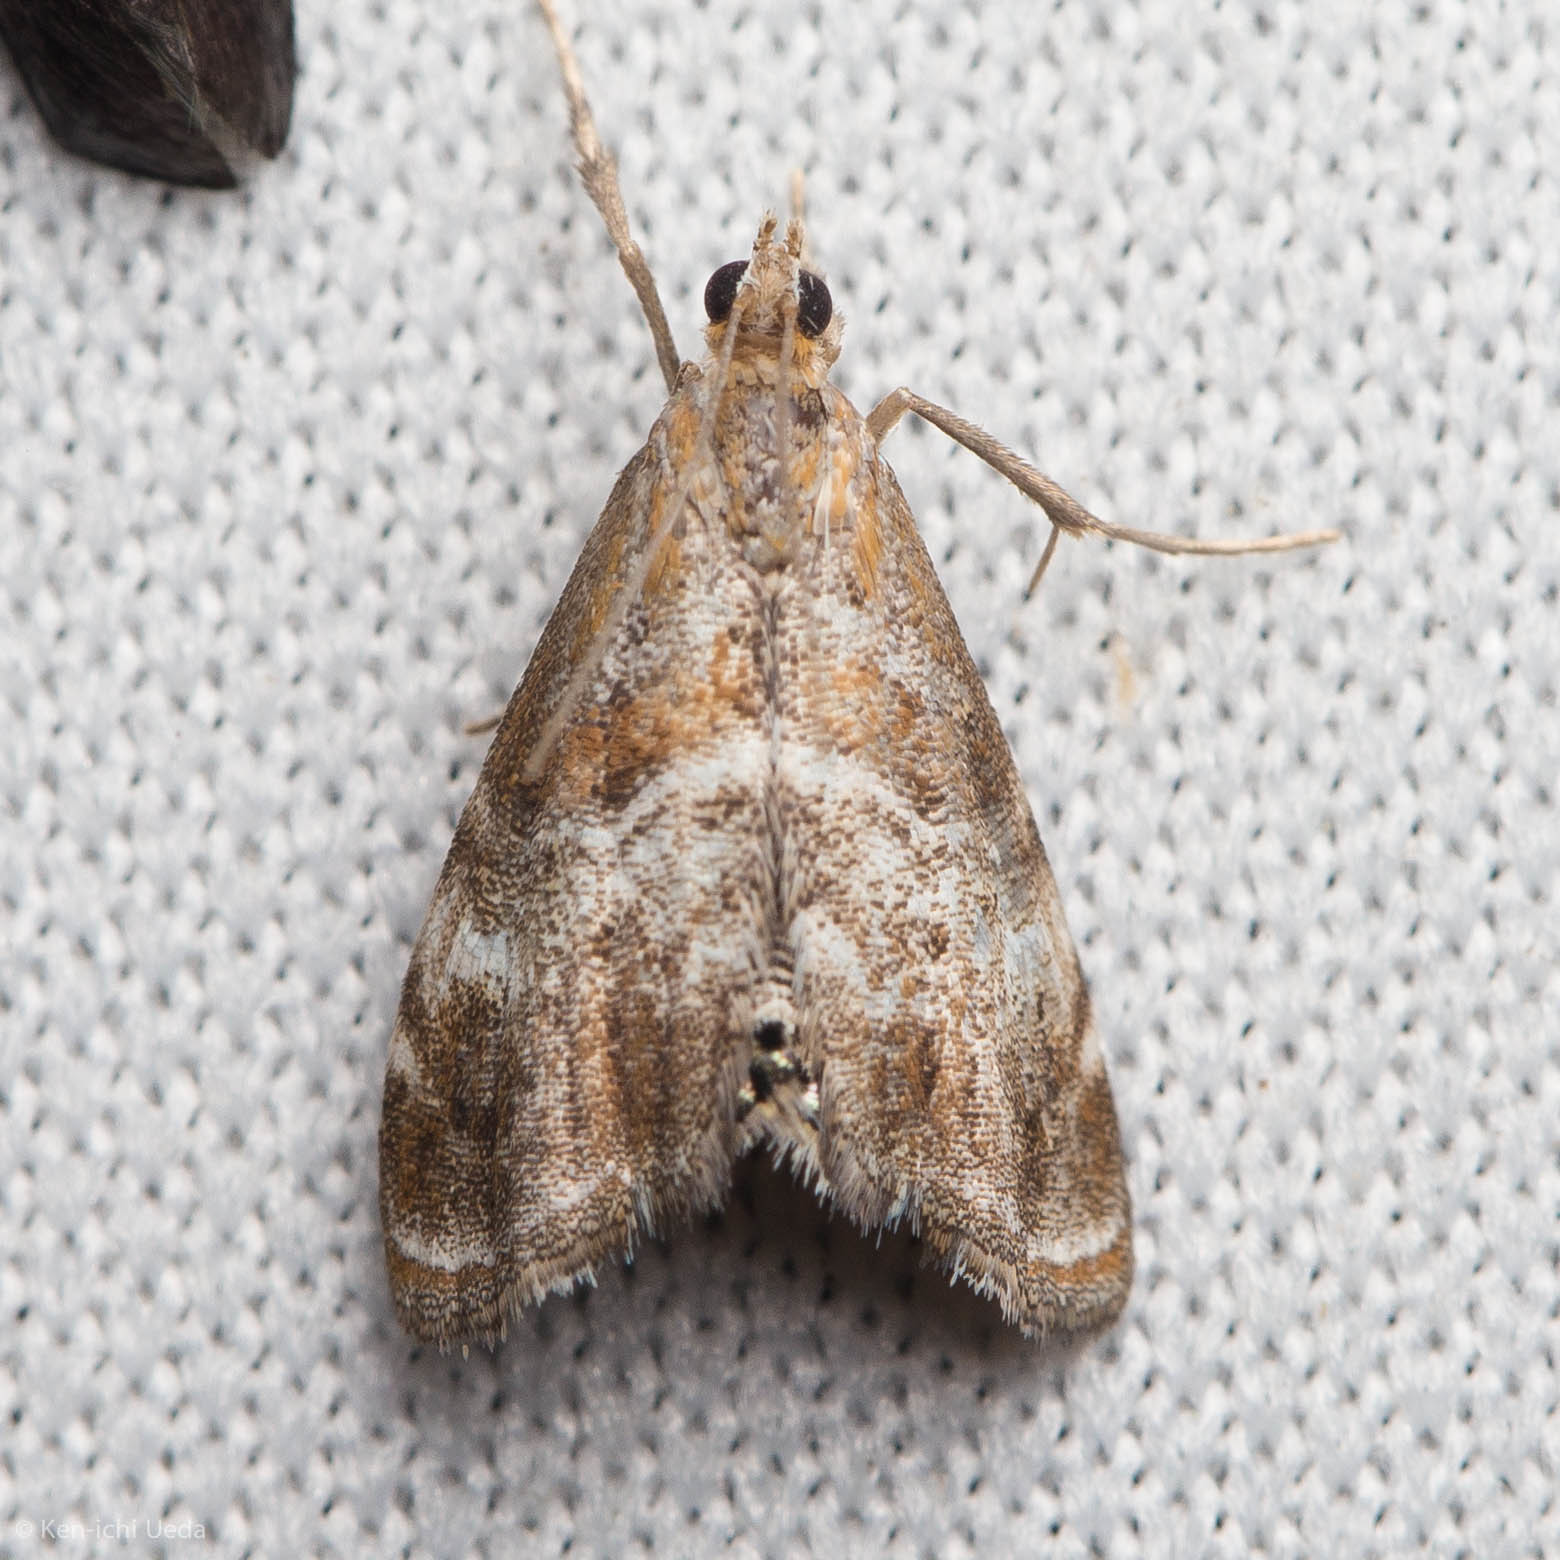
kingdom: Animalia
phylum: Arthropoda
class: Insecta
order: Lepidoptera
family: Crambidae
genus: Dicymolomia
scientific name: Dicymolomia metalliferalis
